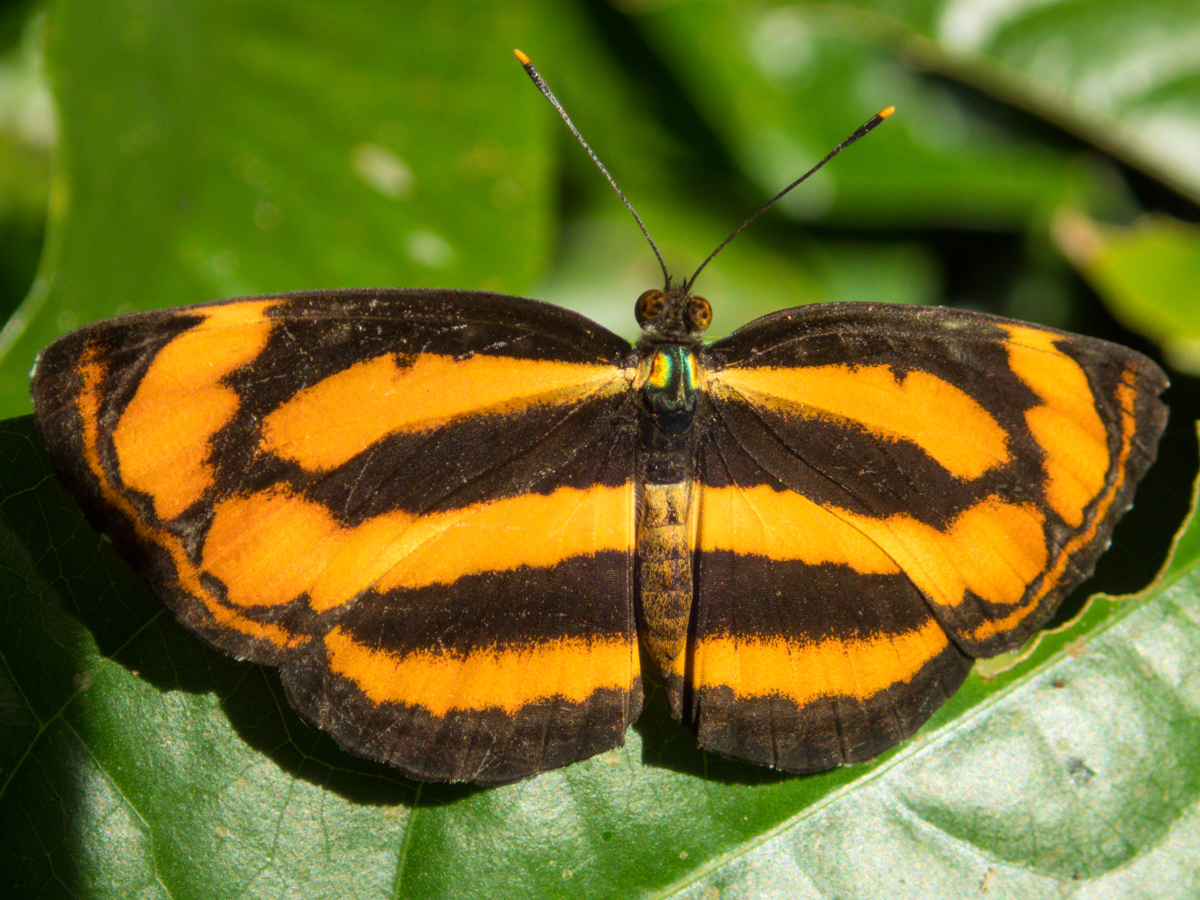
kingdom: Animalia
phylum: Arthropoda
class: Insecta
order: Lepidoptera
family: Nymphalidae
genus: Pantoporia
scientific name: Pantoporia sandaka
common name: Extra lascar
